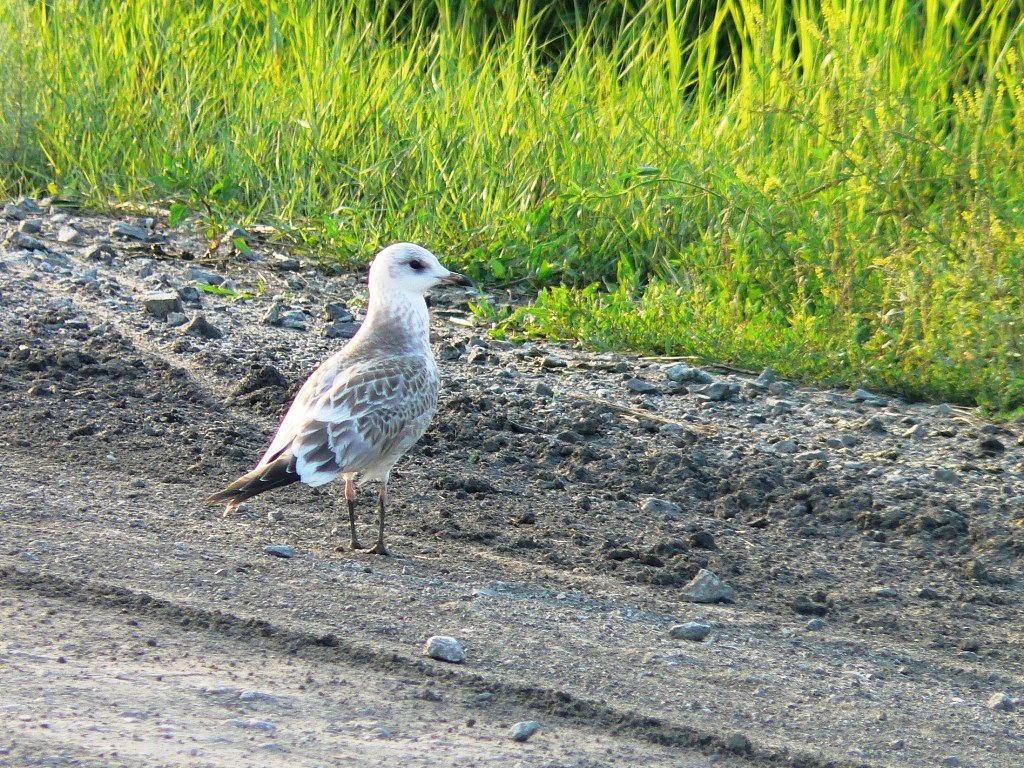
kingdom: Animalia
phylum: Chordata
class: Aves
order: Charadriiformes
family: Laridae
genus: Larus
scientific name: Larus canus
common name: Mew gull
